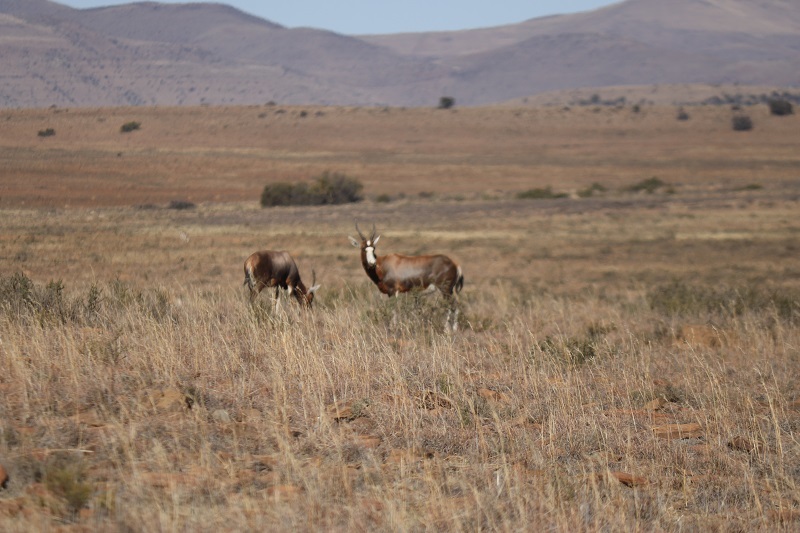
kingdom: Animalia
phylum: Chordata
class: Mammalia
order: Artiodactyla
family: Bovidae
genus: Damaliscus
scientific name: Damaliscus pygargus
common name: Bontebok
